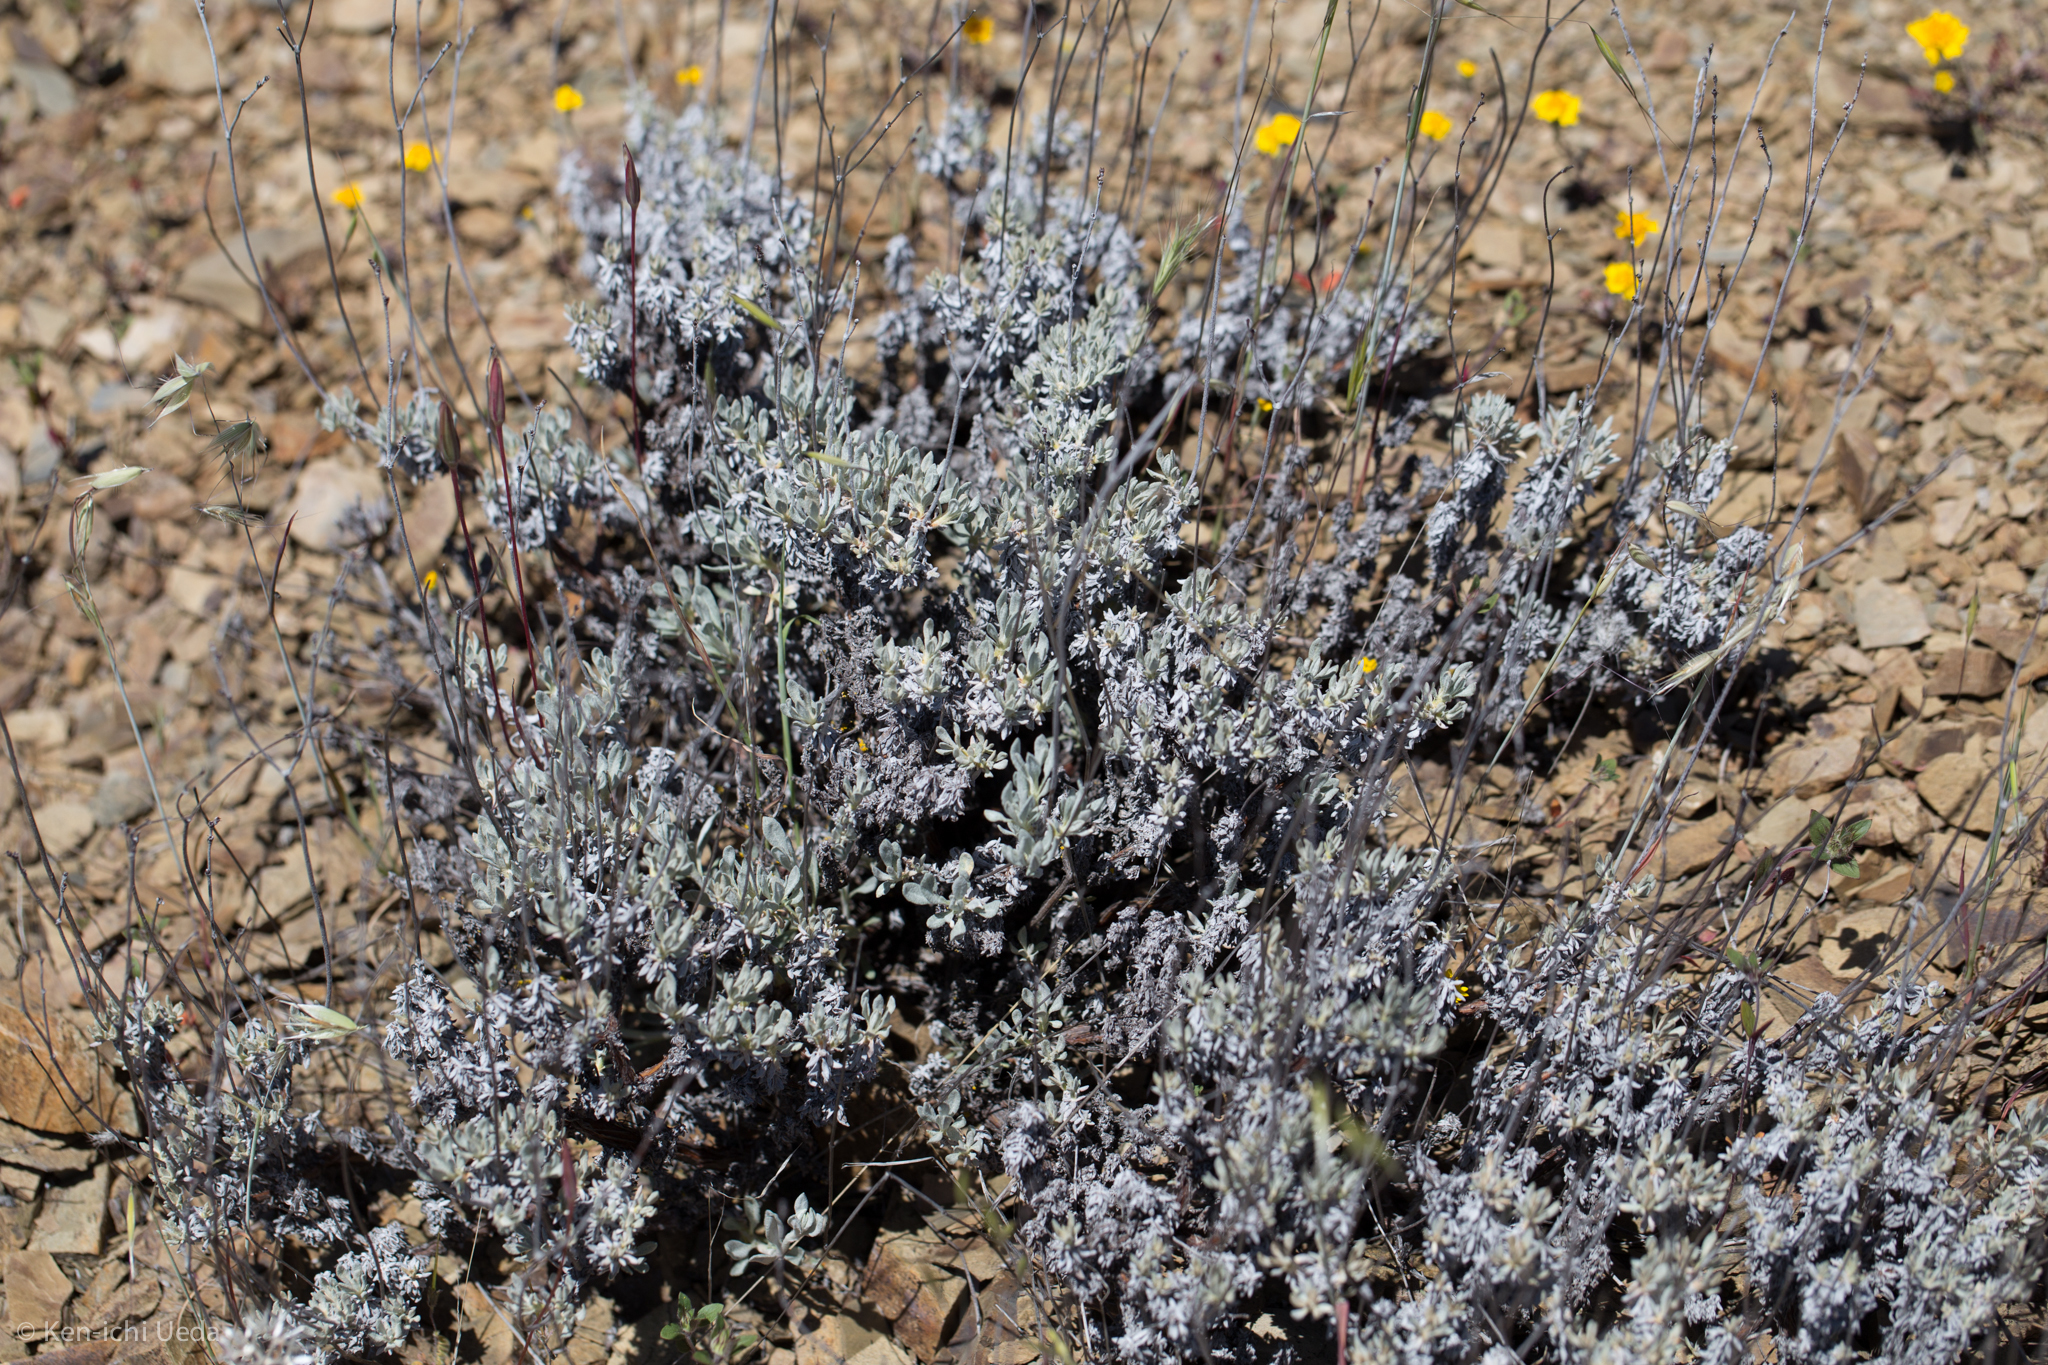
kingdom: Plantae
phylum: Tracheophyta
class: Magnoliopsida
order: Caryophyllales
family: Polygonaceae
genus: Eriogonum
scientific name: Eriogonum wrightii
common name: Bastard-sage
